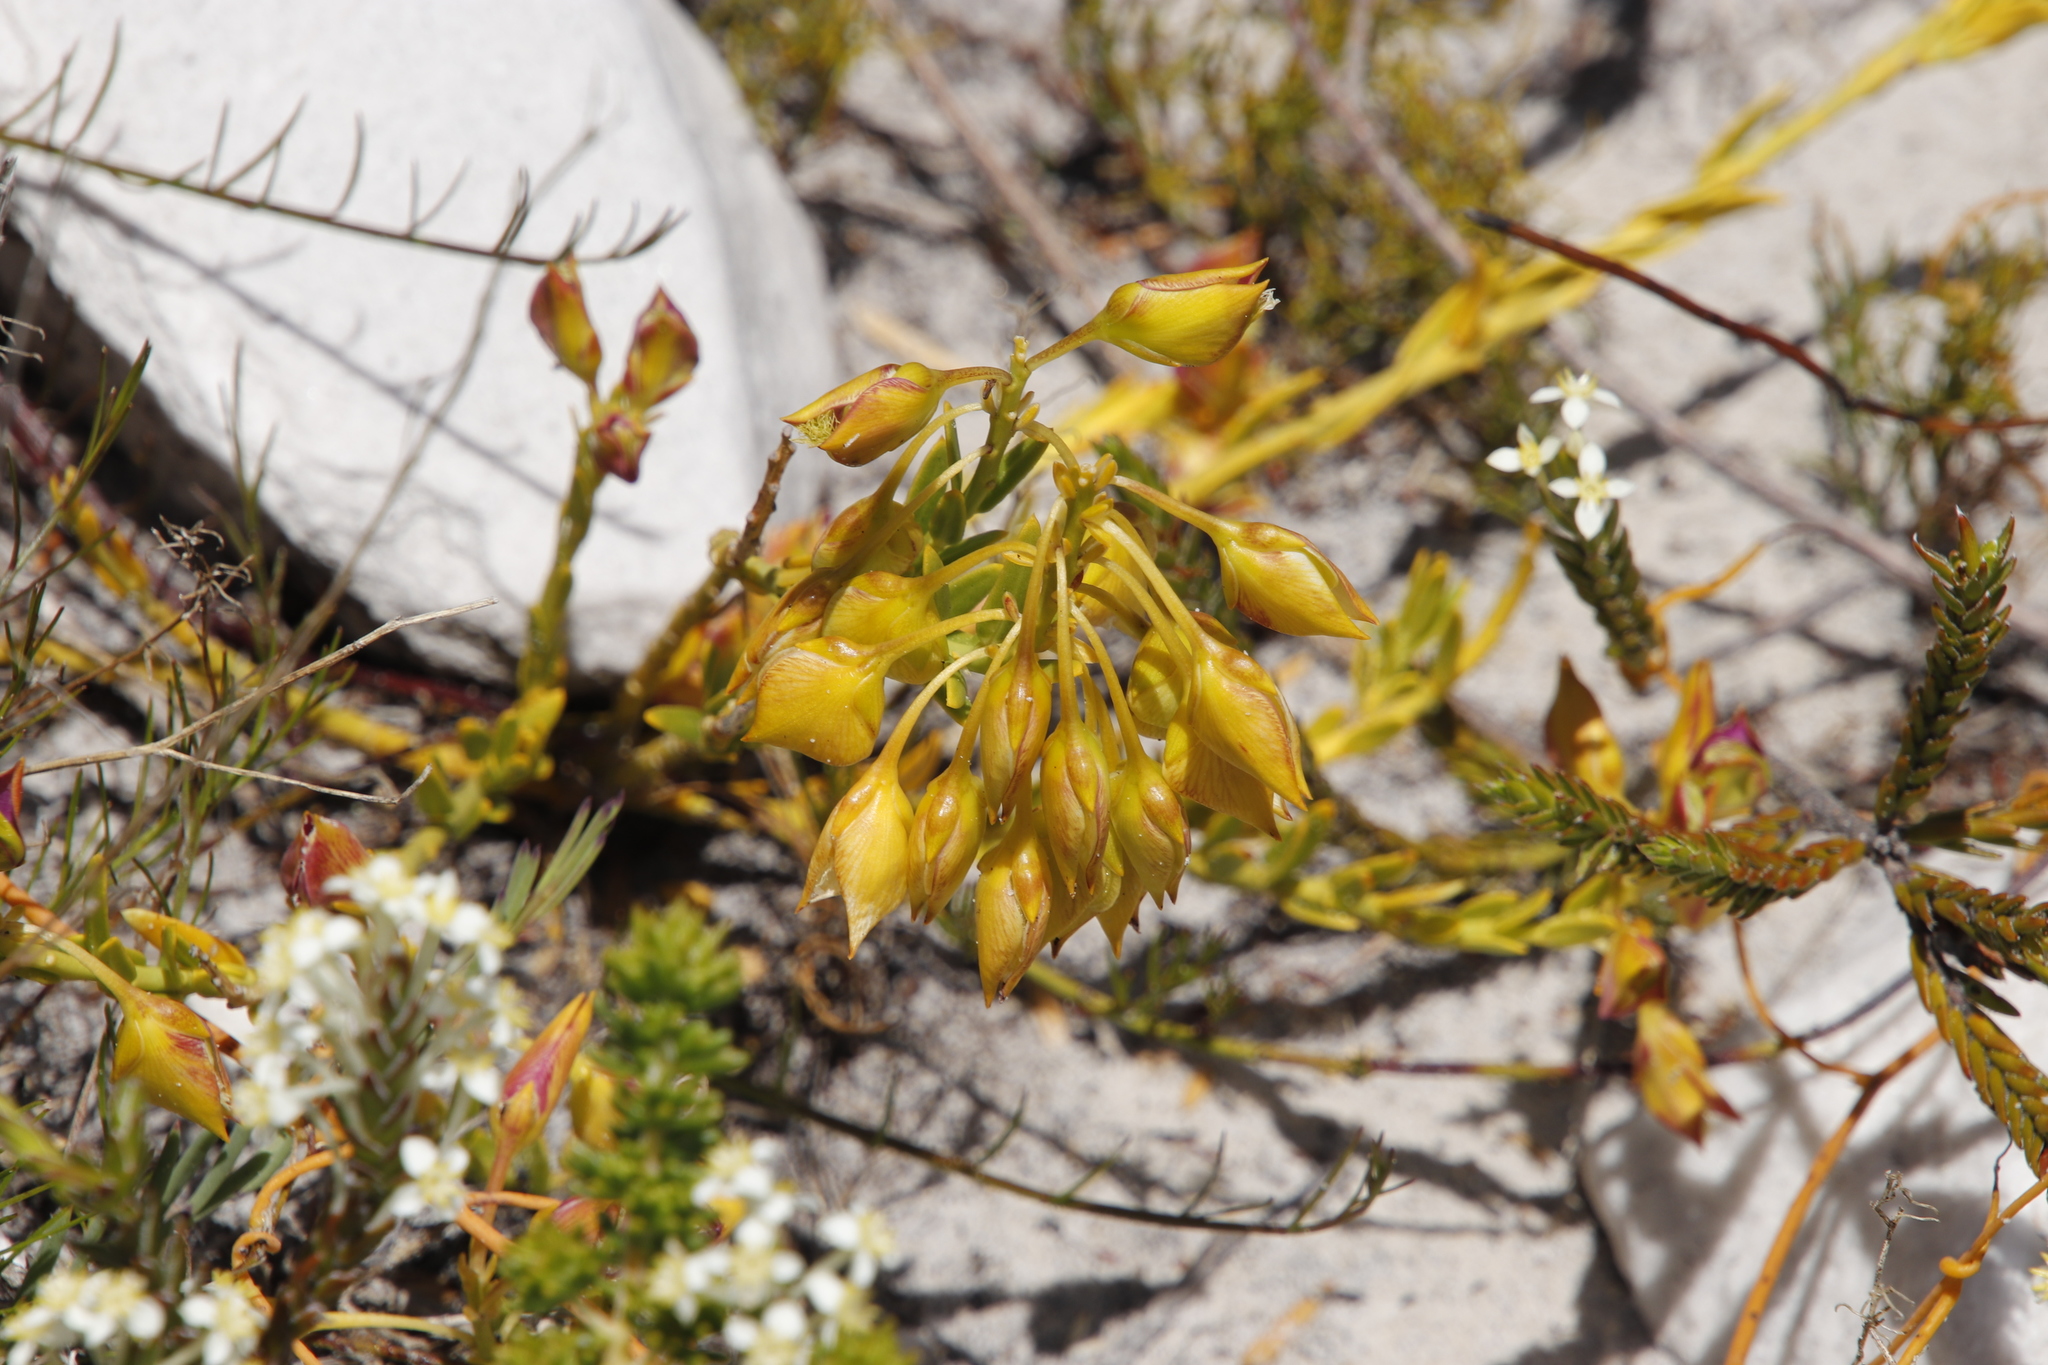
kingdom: Plantae
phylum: Tracheophyta
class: Magnoliopsida
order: Fabales
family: Polygalaceae
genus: Polygala
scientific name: Polygala bracteolata
